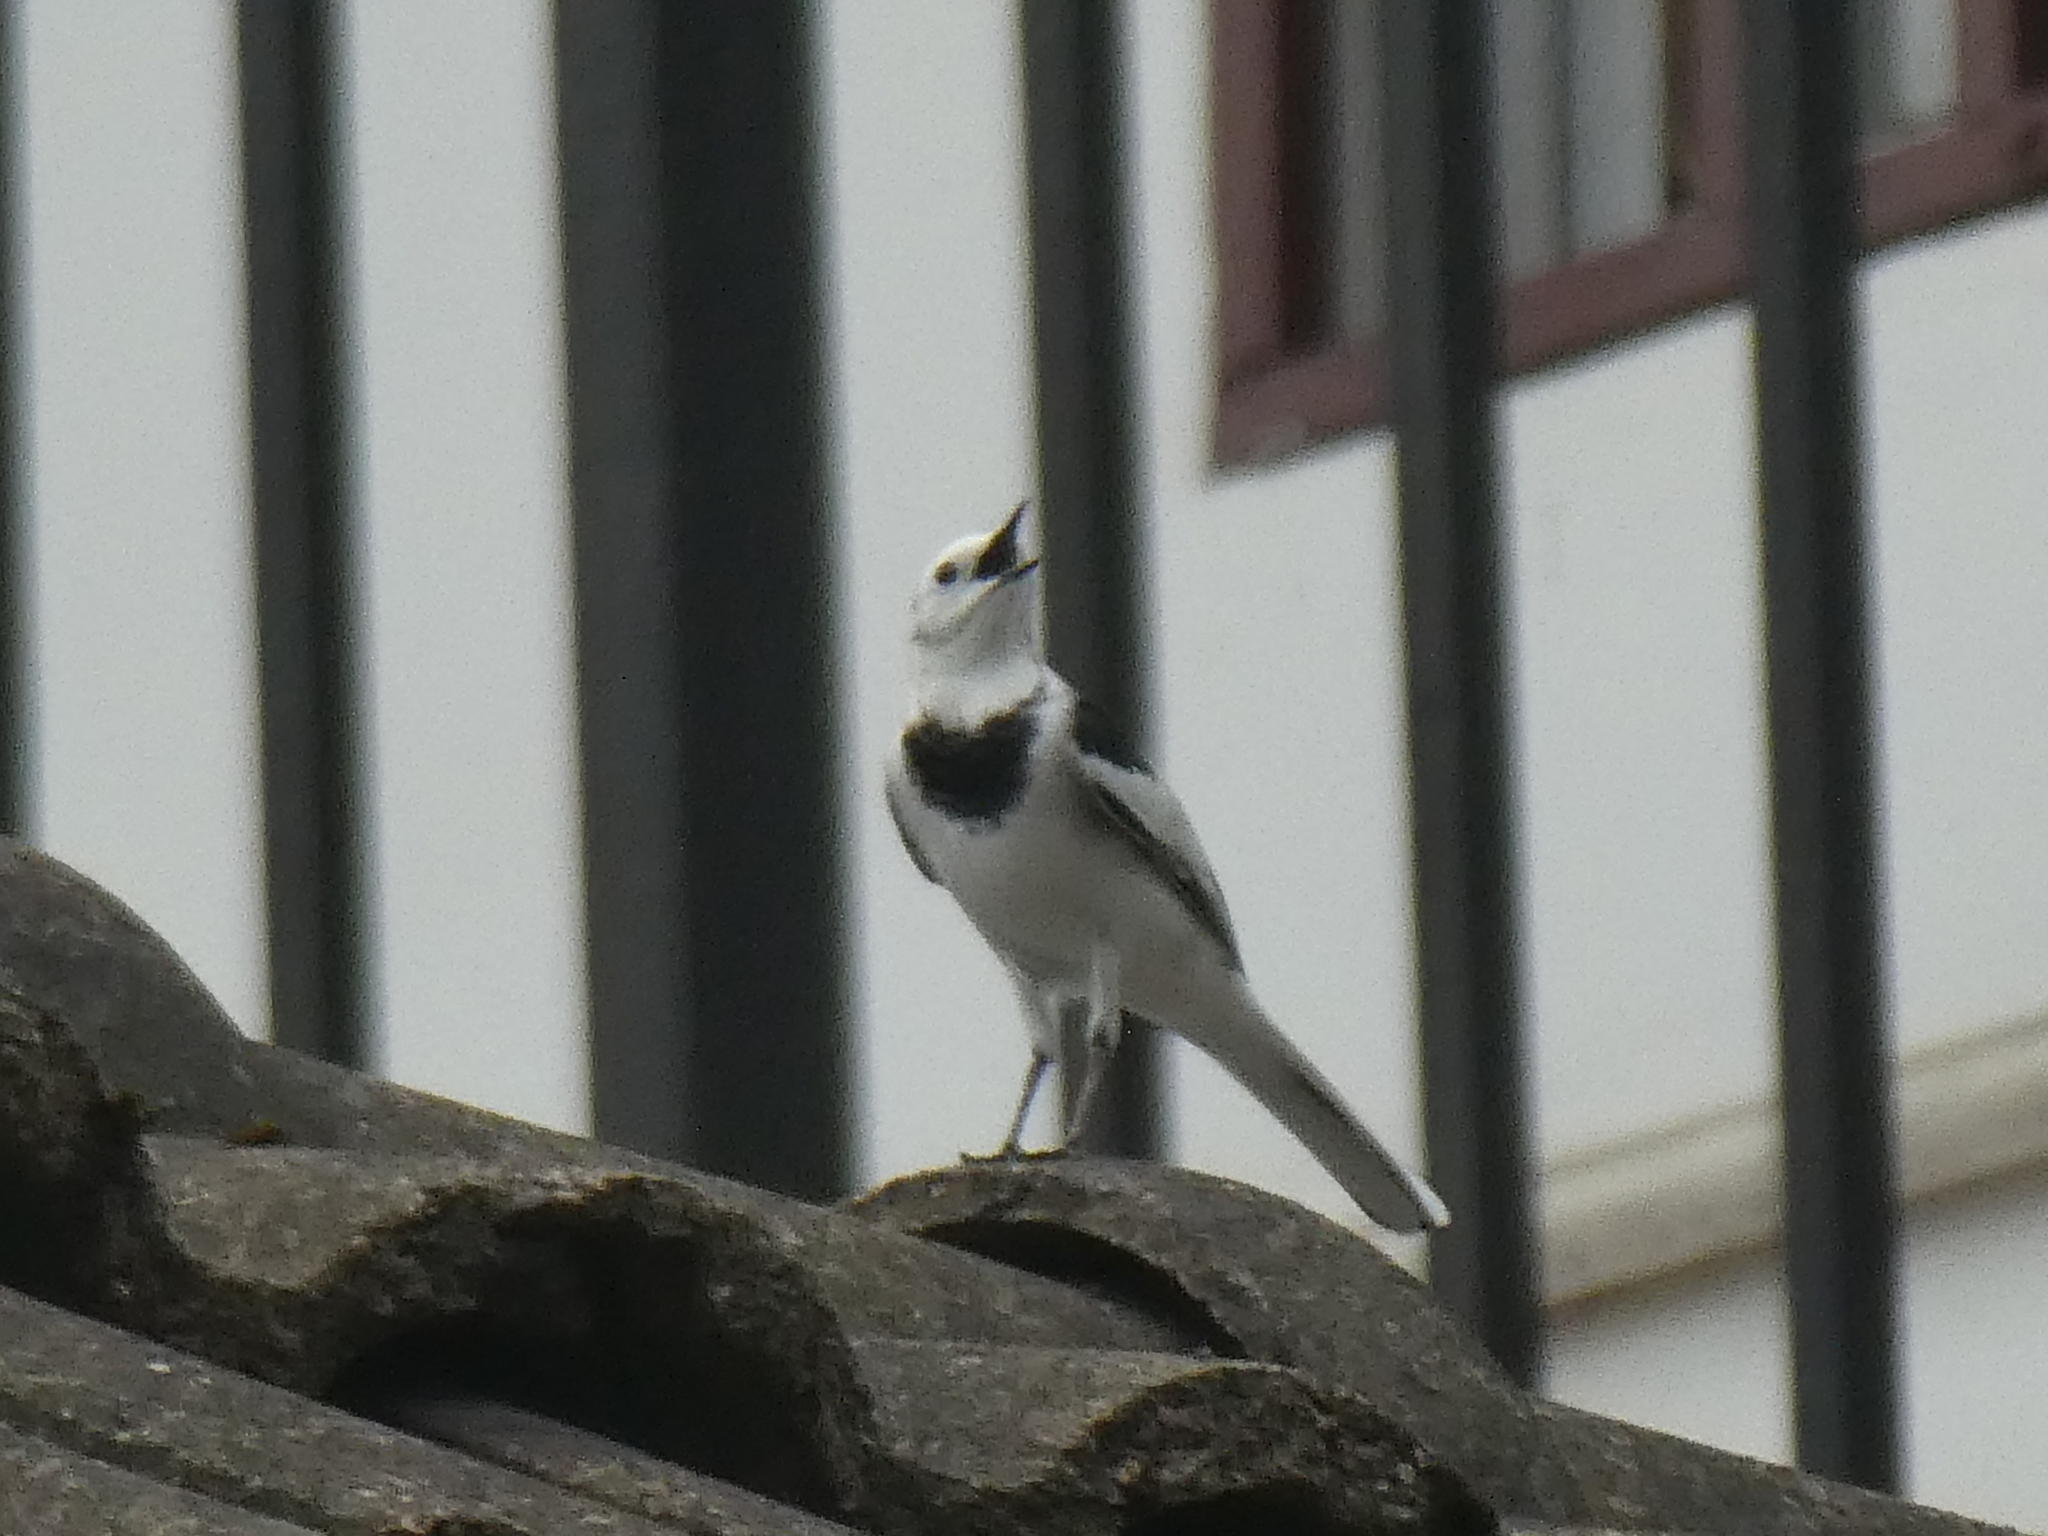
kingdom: Animalia
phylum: Chordata
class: Aves
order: Passeriformes
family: Motacillidae
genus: Motacilla
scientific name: Motacilla alba
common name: White wagtail
